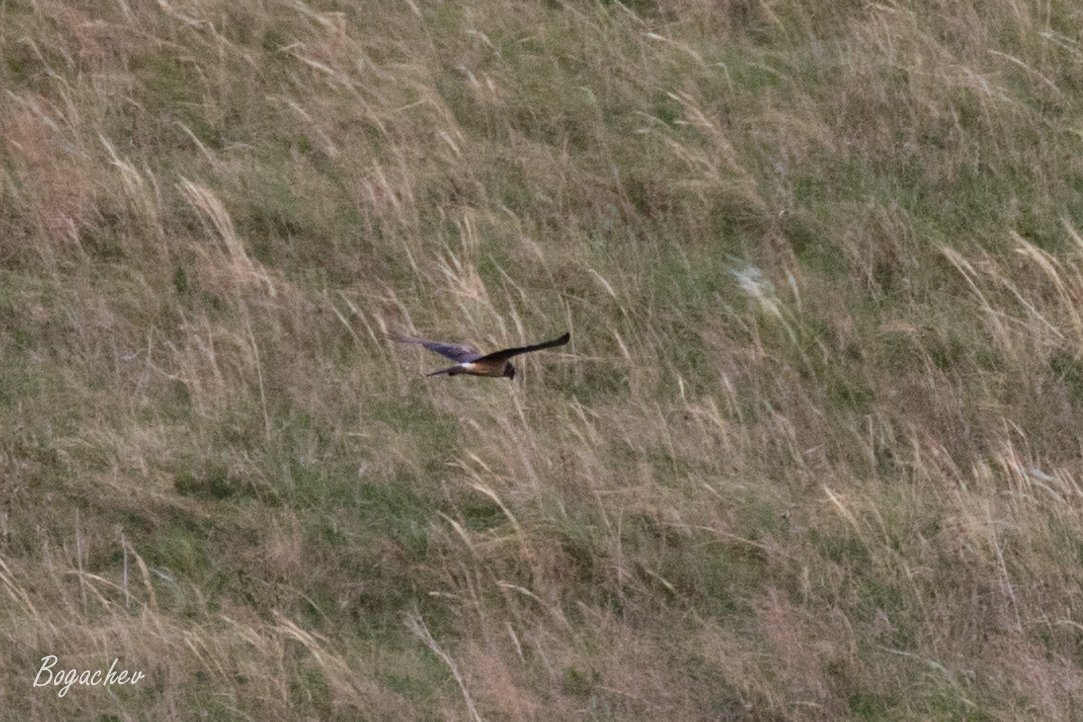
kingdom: Animalia
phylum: Chordata
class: Aves
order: Accipitriformes
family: Accipitridae
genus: Circus
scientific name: Circus macrourus
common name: Pallid harrier
